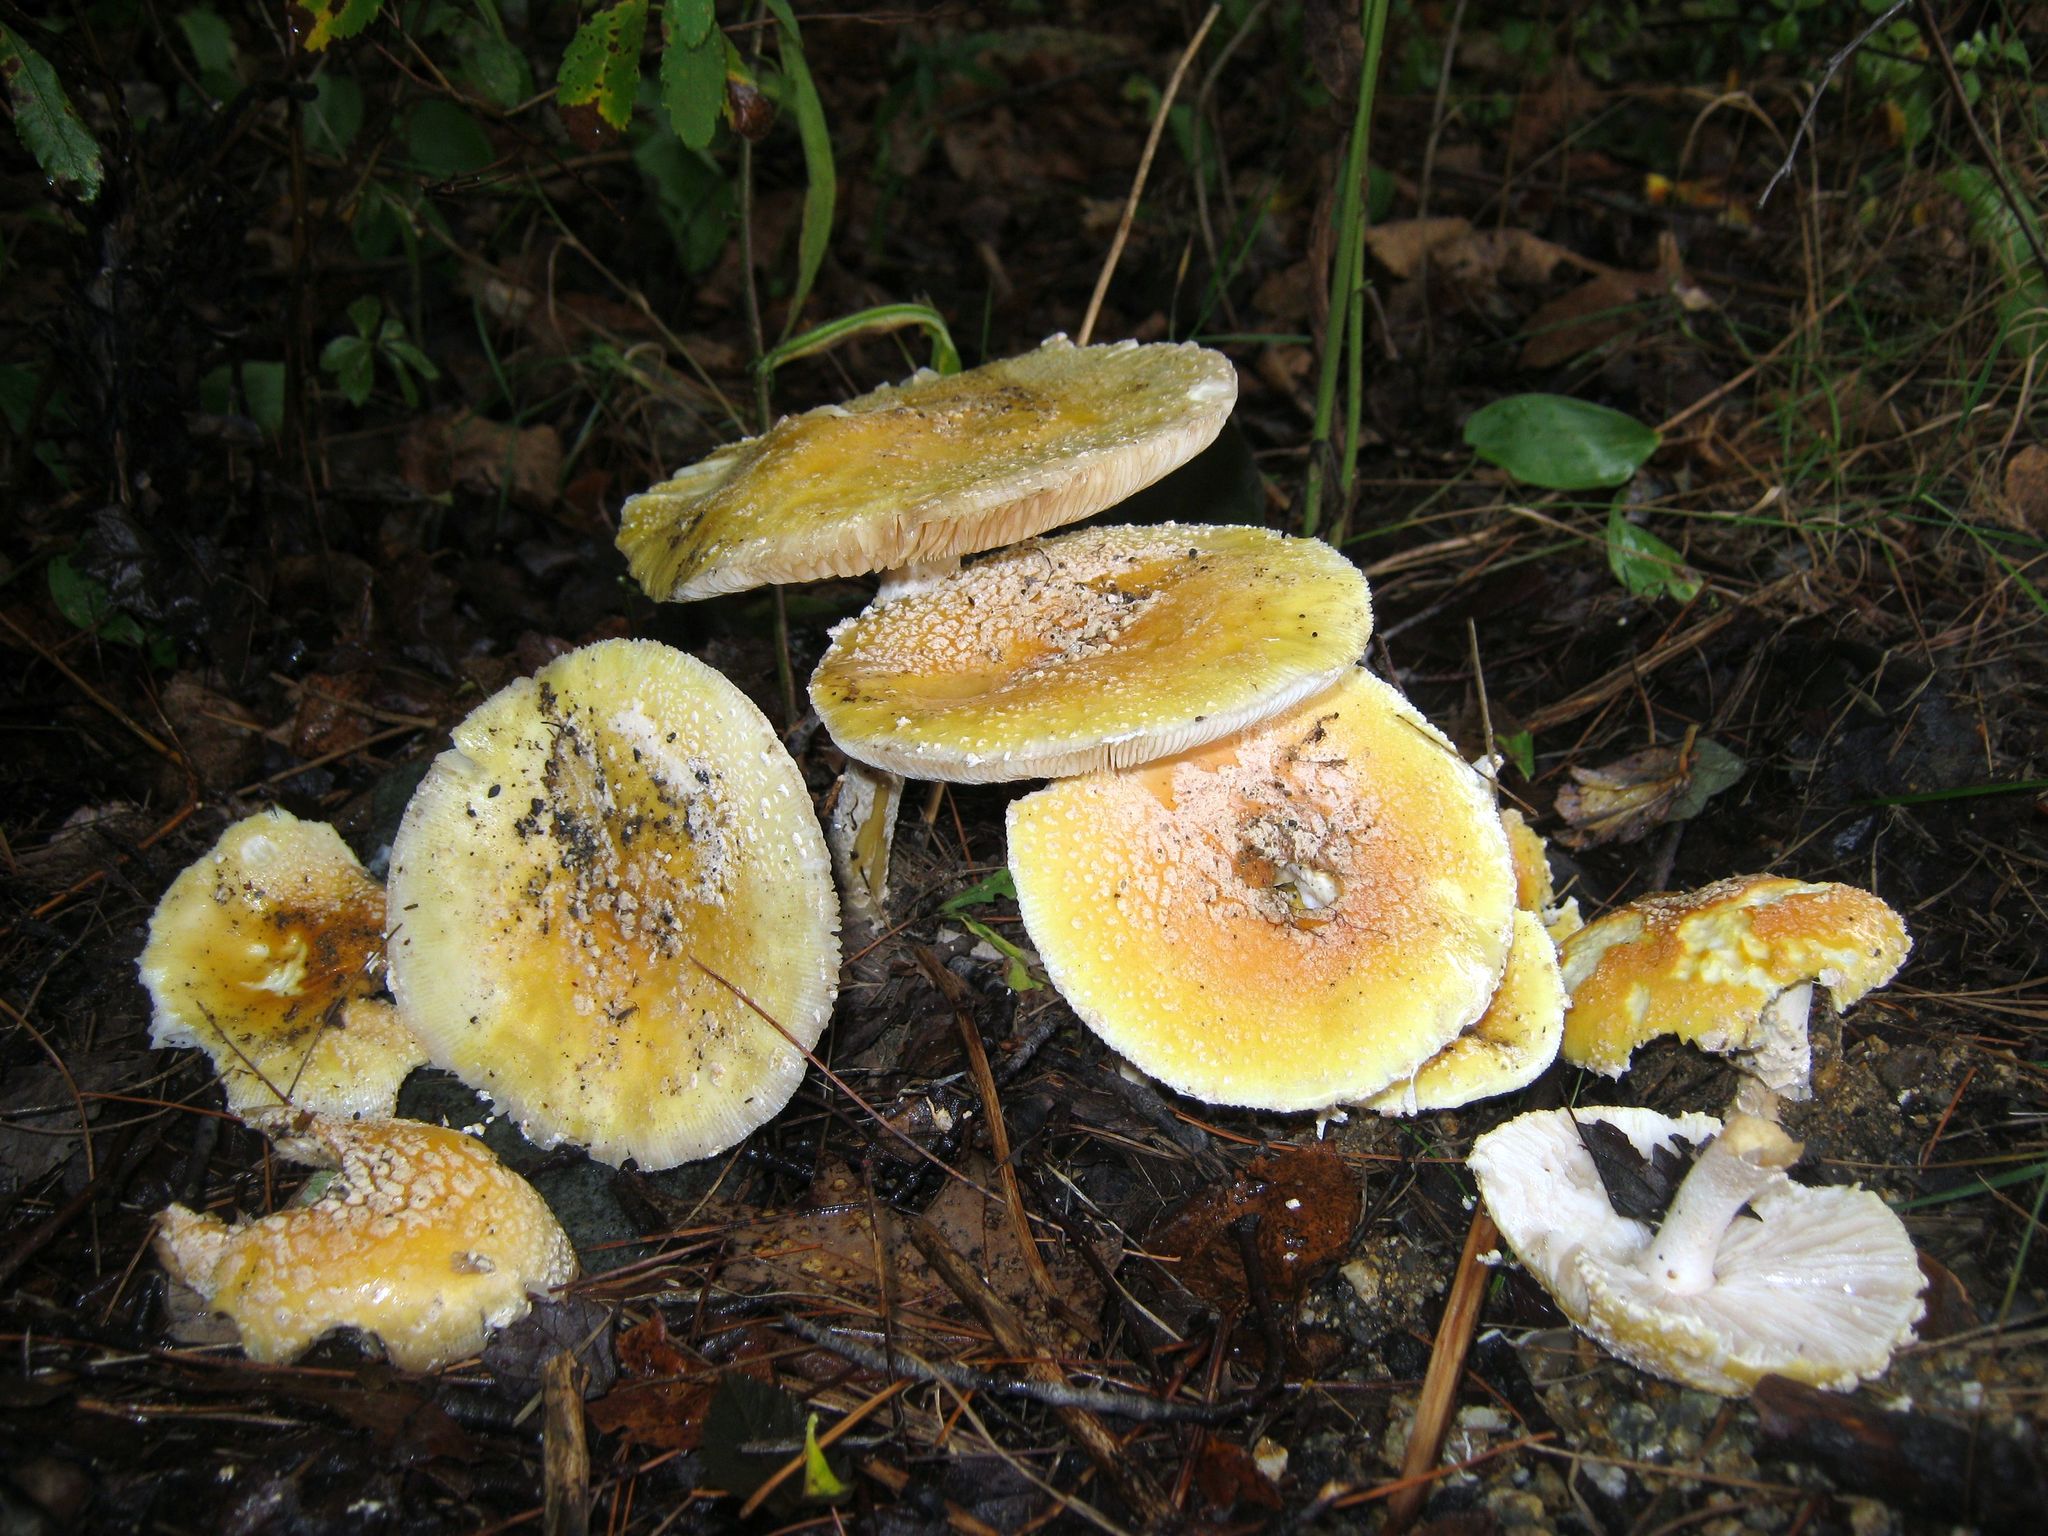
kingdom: Fungi
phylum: Basidiomycota
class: Agaricomycetes
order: Agaricales
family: Amanitaceae
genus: Amanita
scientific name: Amanita muscaria
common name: Fly agaric
